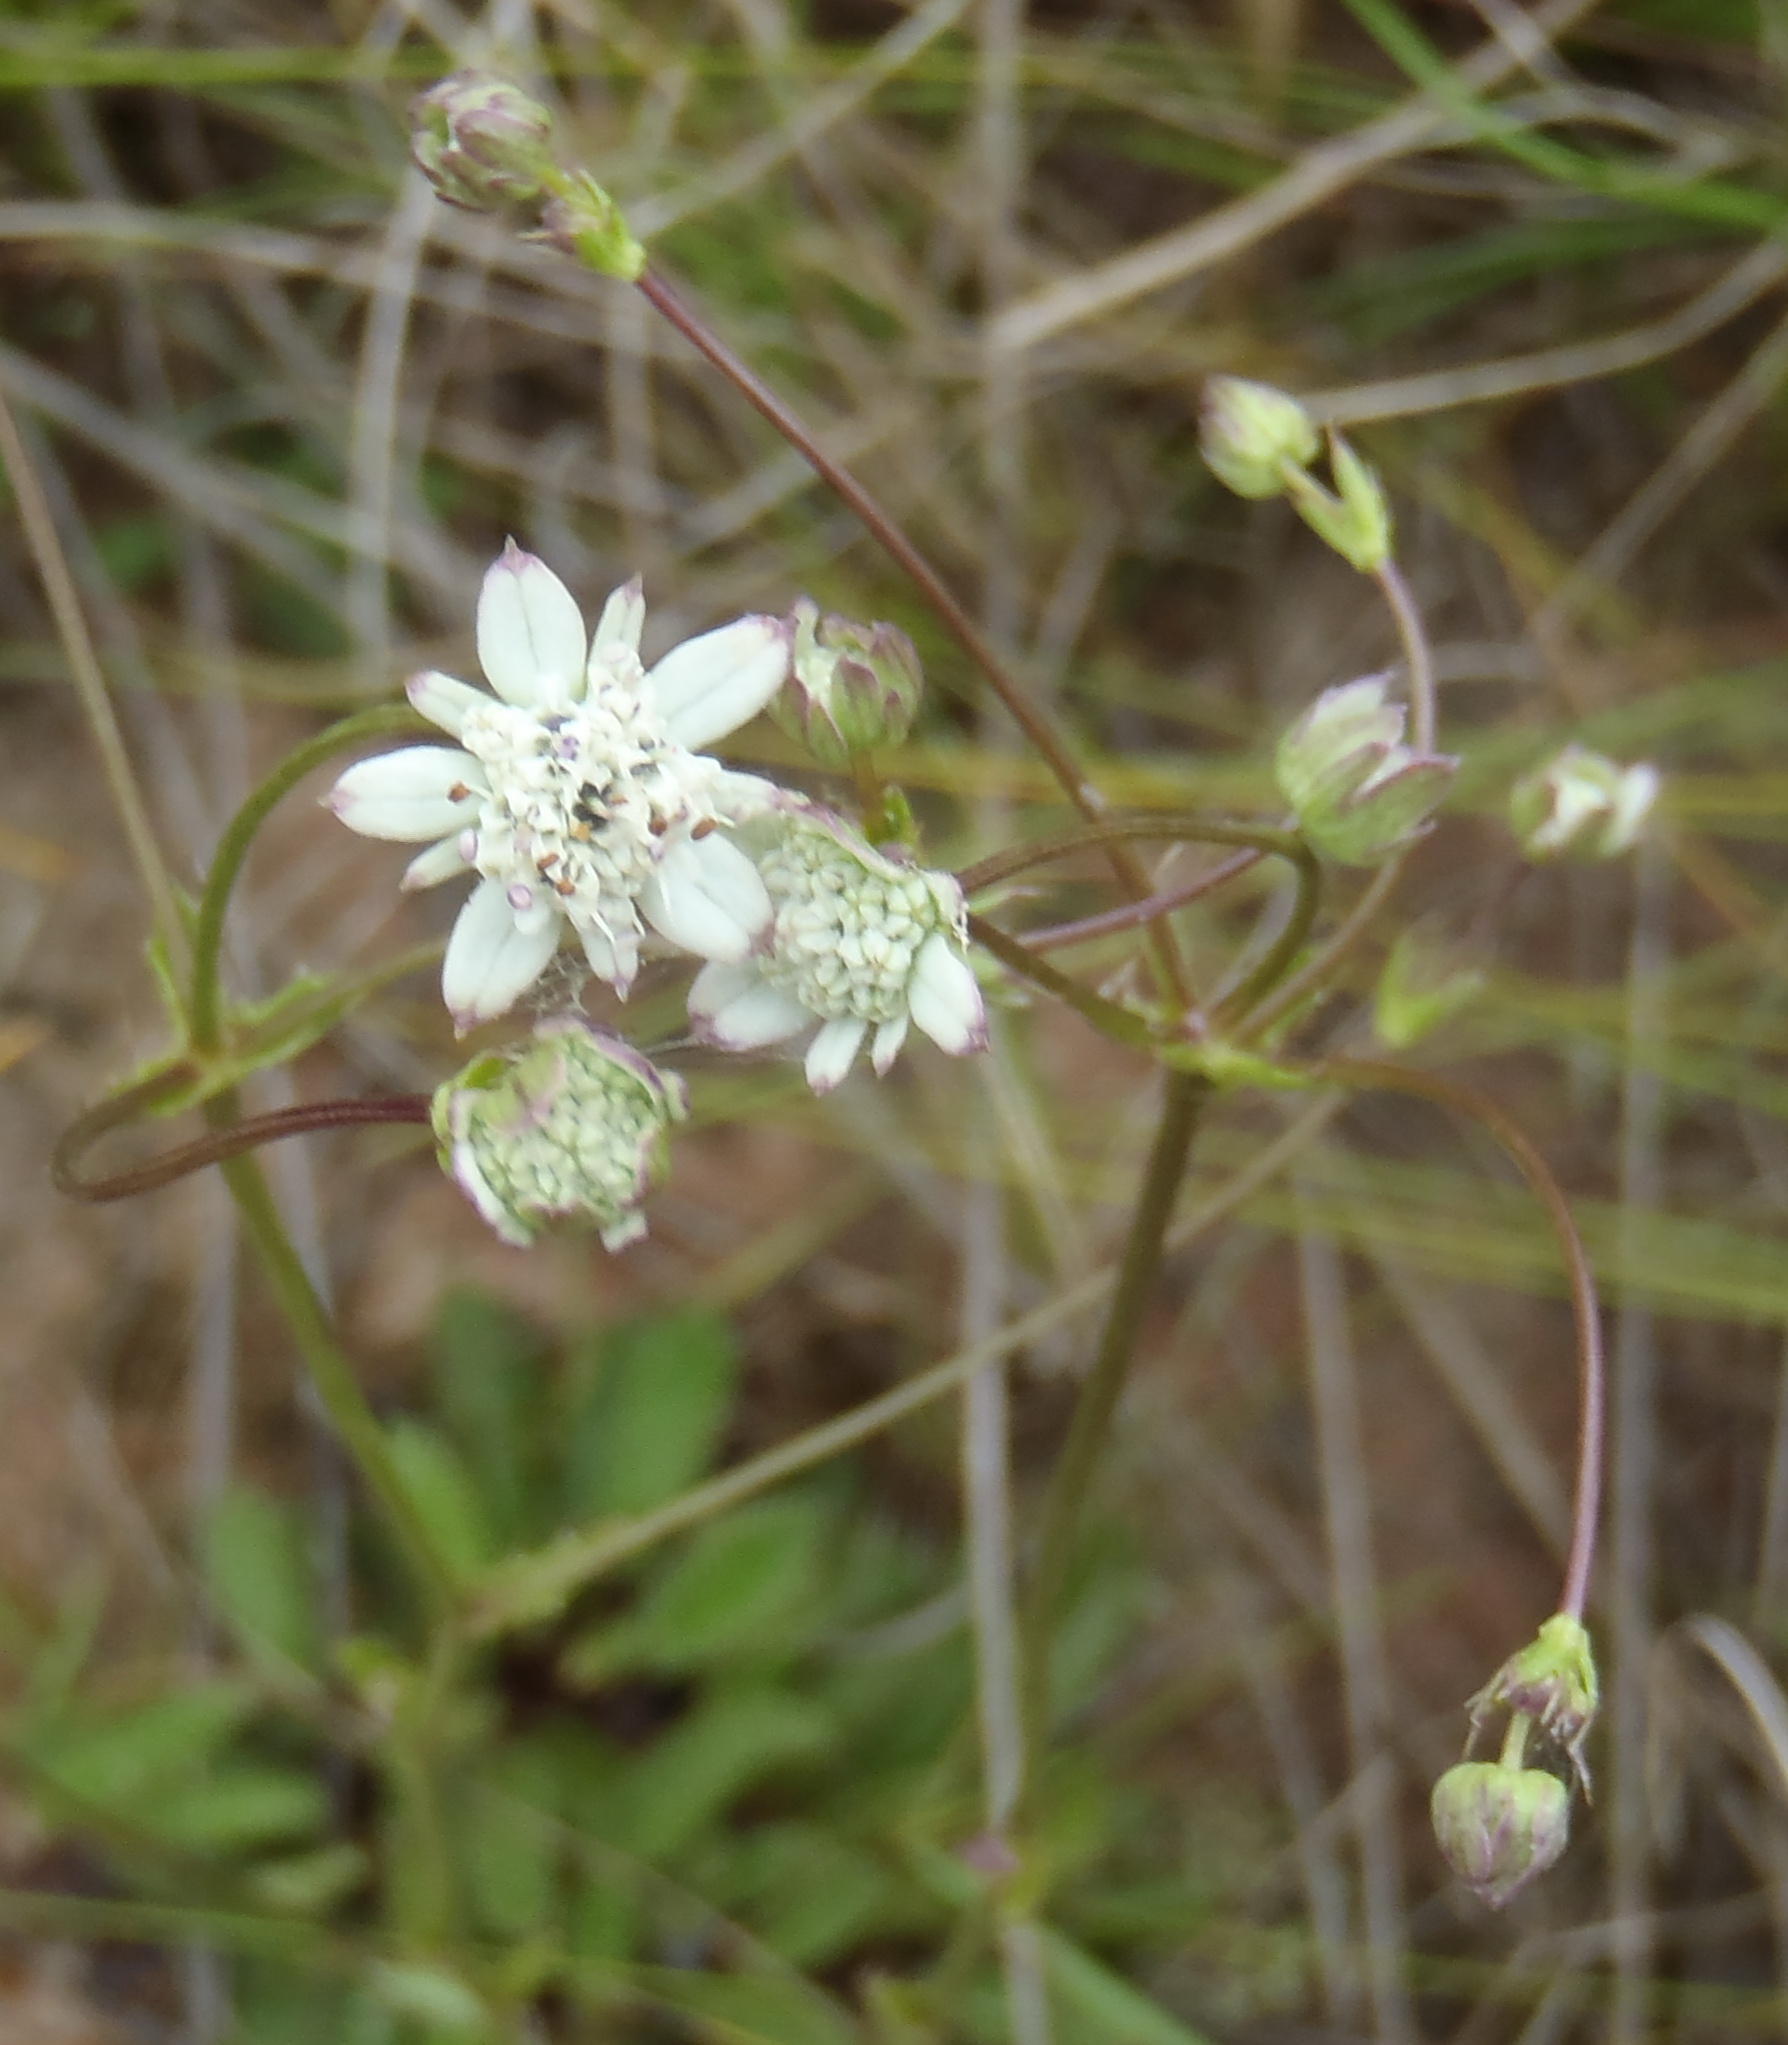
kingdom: Plantae
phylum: Tracheophyta
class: Magnoliopsida
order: Apiales
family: Apiaceae
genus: Alepidea
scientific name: Alepidea capensis
